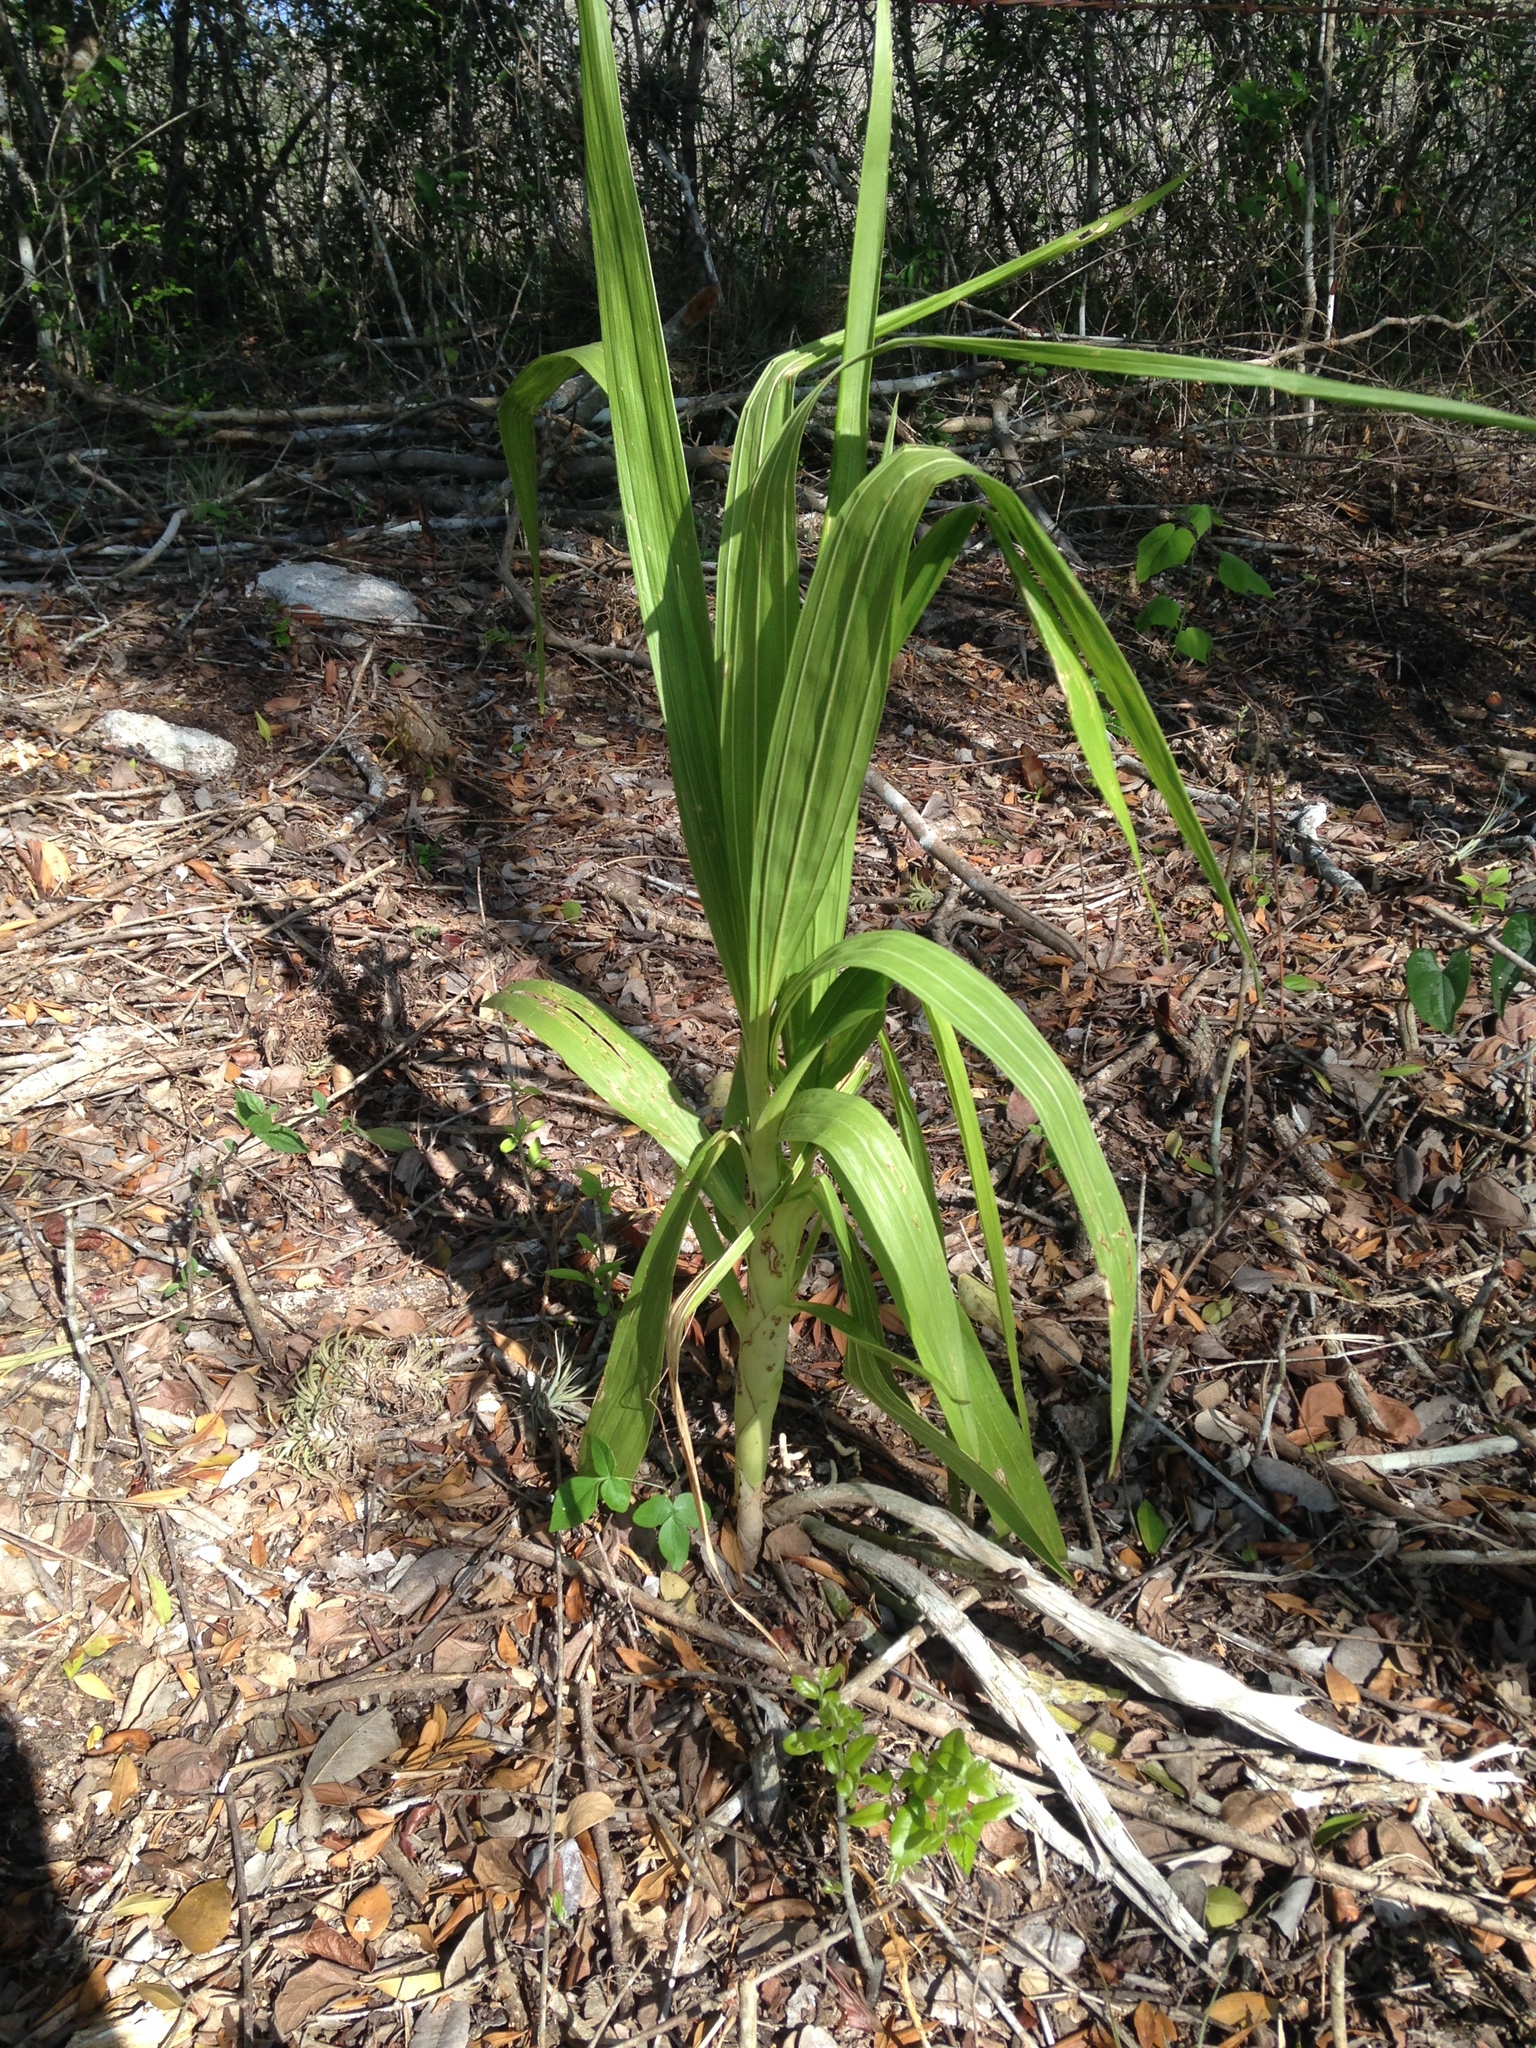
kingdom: Plantae
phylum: Tracheophyta
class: Liliopsida
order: Asparagales
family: Orchidaceae
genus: Cyrtopodium
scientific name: Cyrtopodium macrobulbon
